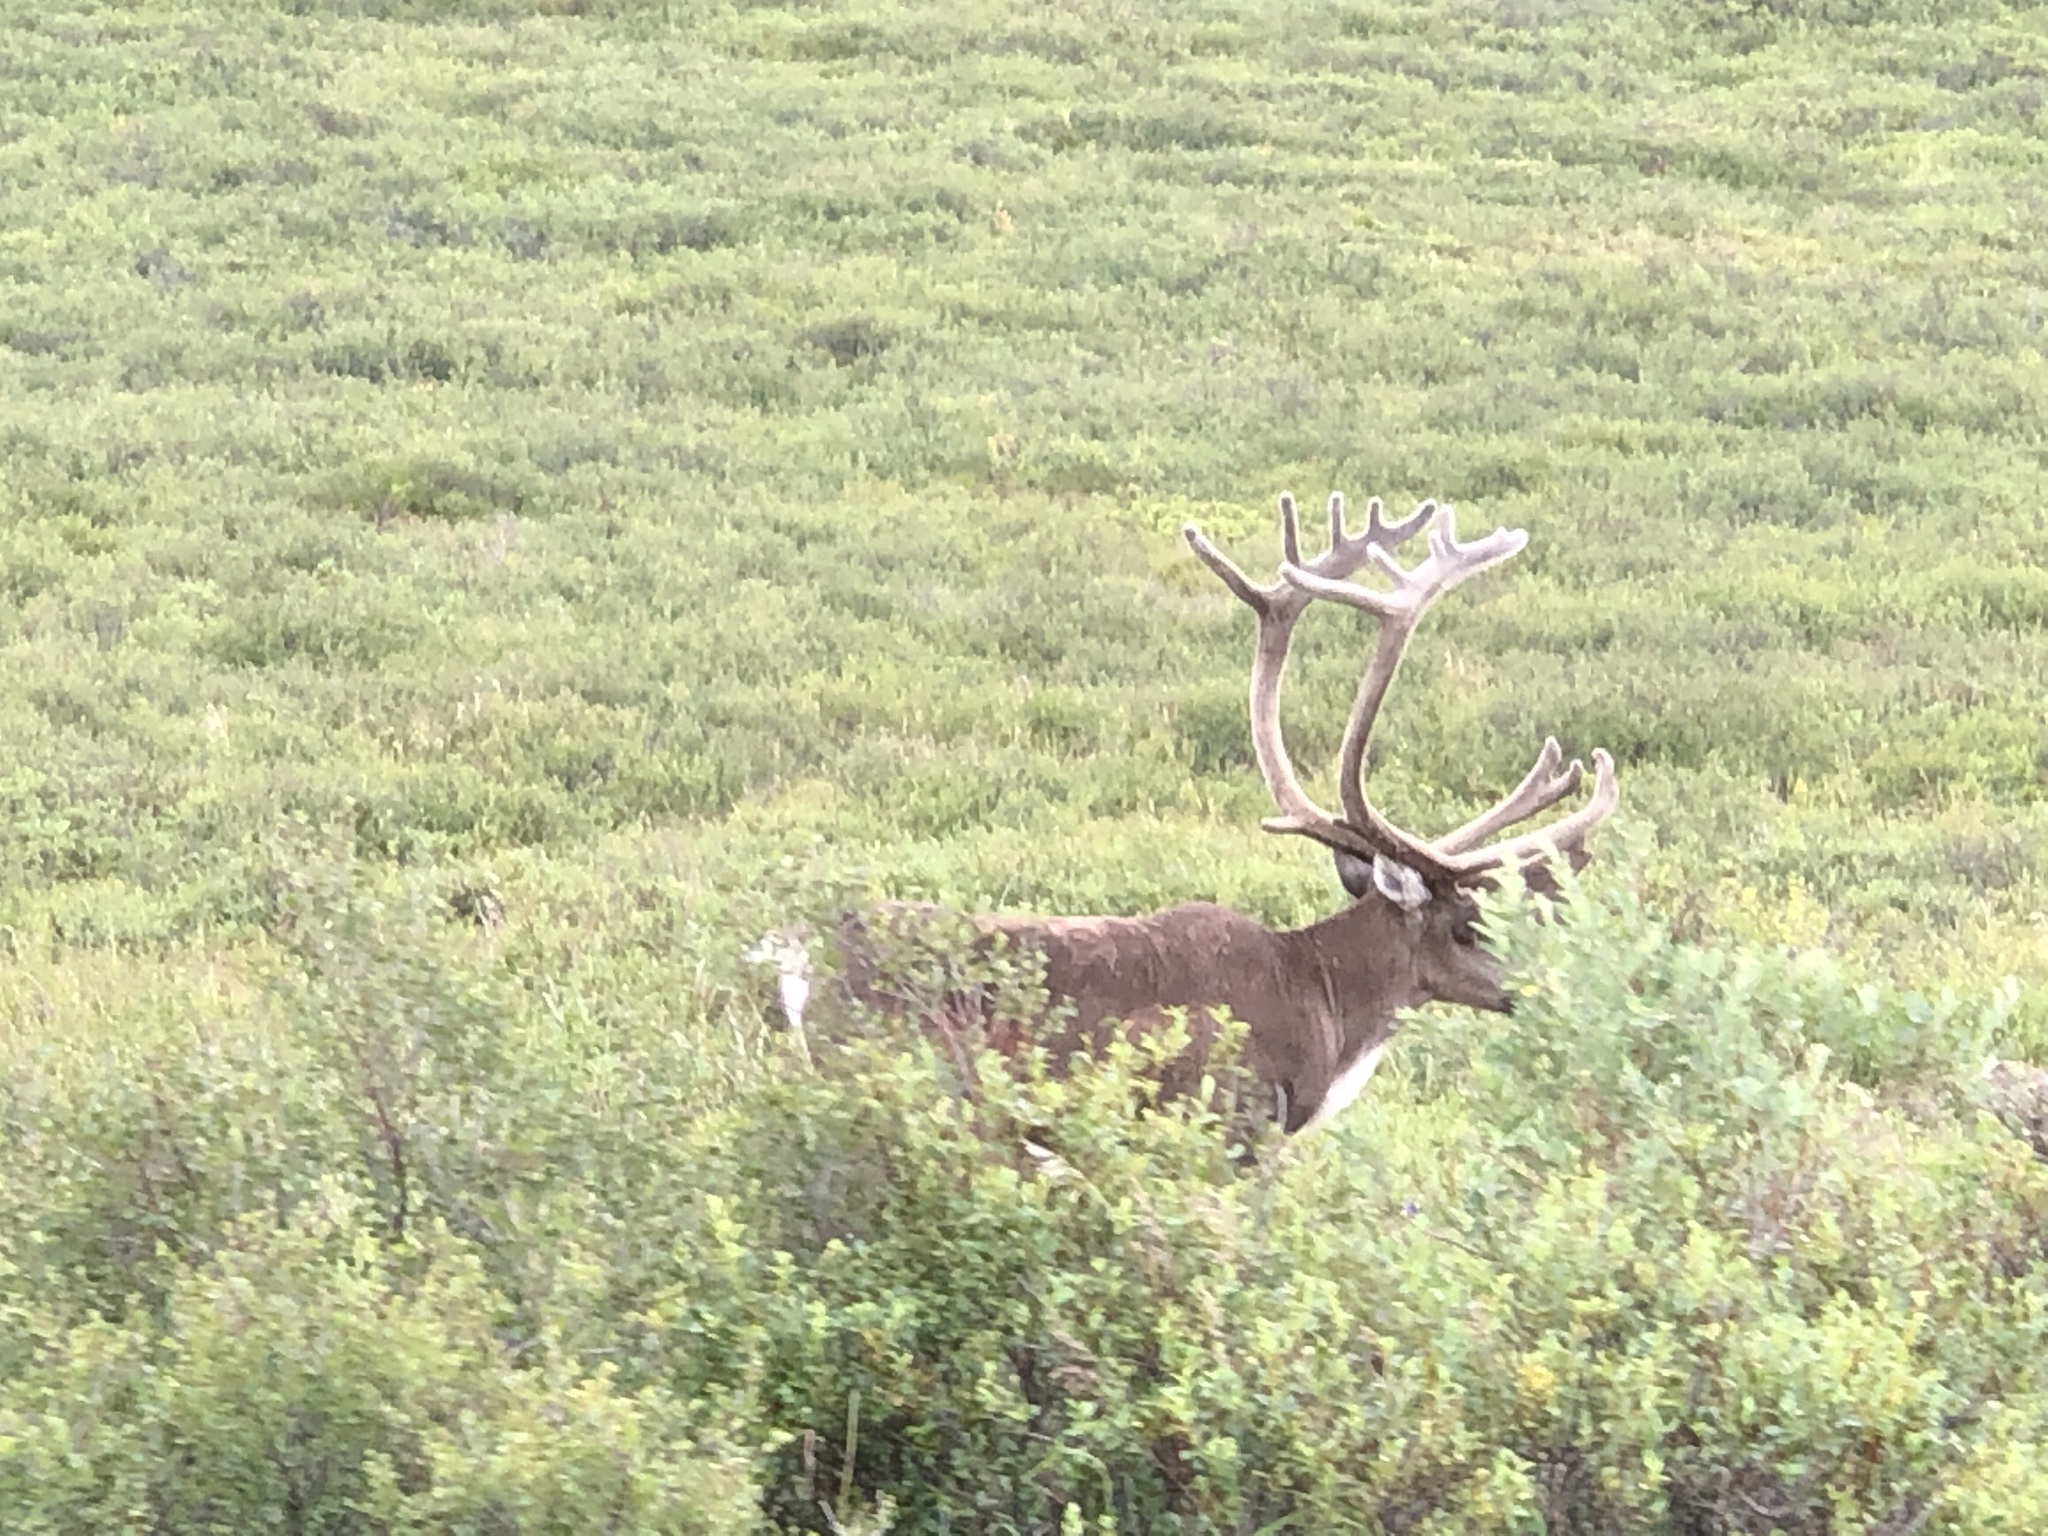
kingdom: Animalia
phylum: Chordata
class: Mammalia
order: Artiodactyla
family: Cervidae
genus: Rangifer
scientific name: Rangifer tarandus
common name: Reindeer
